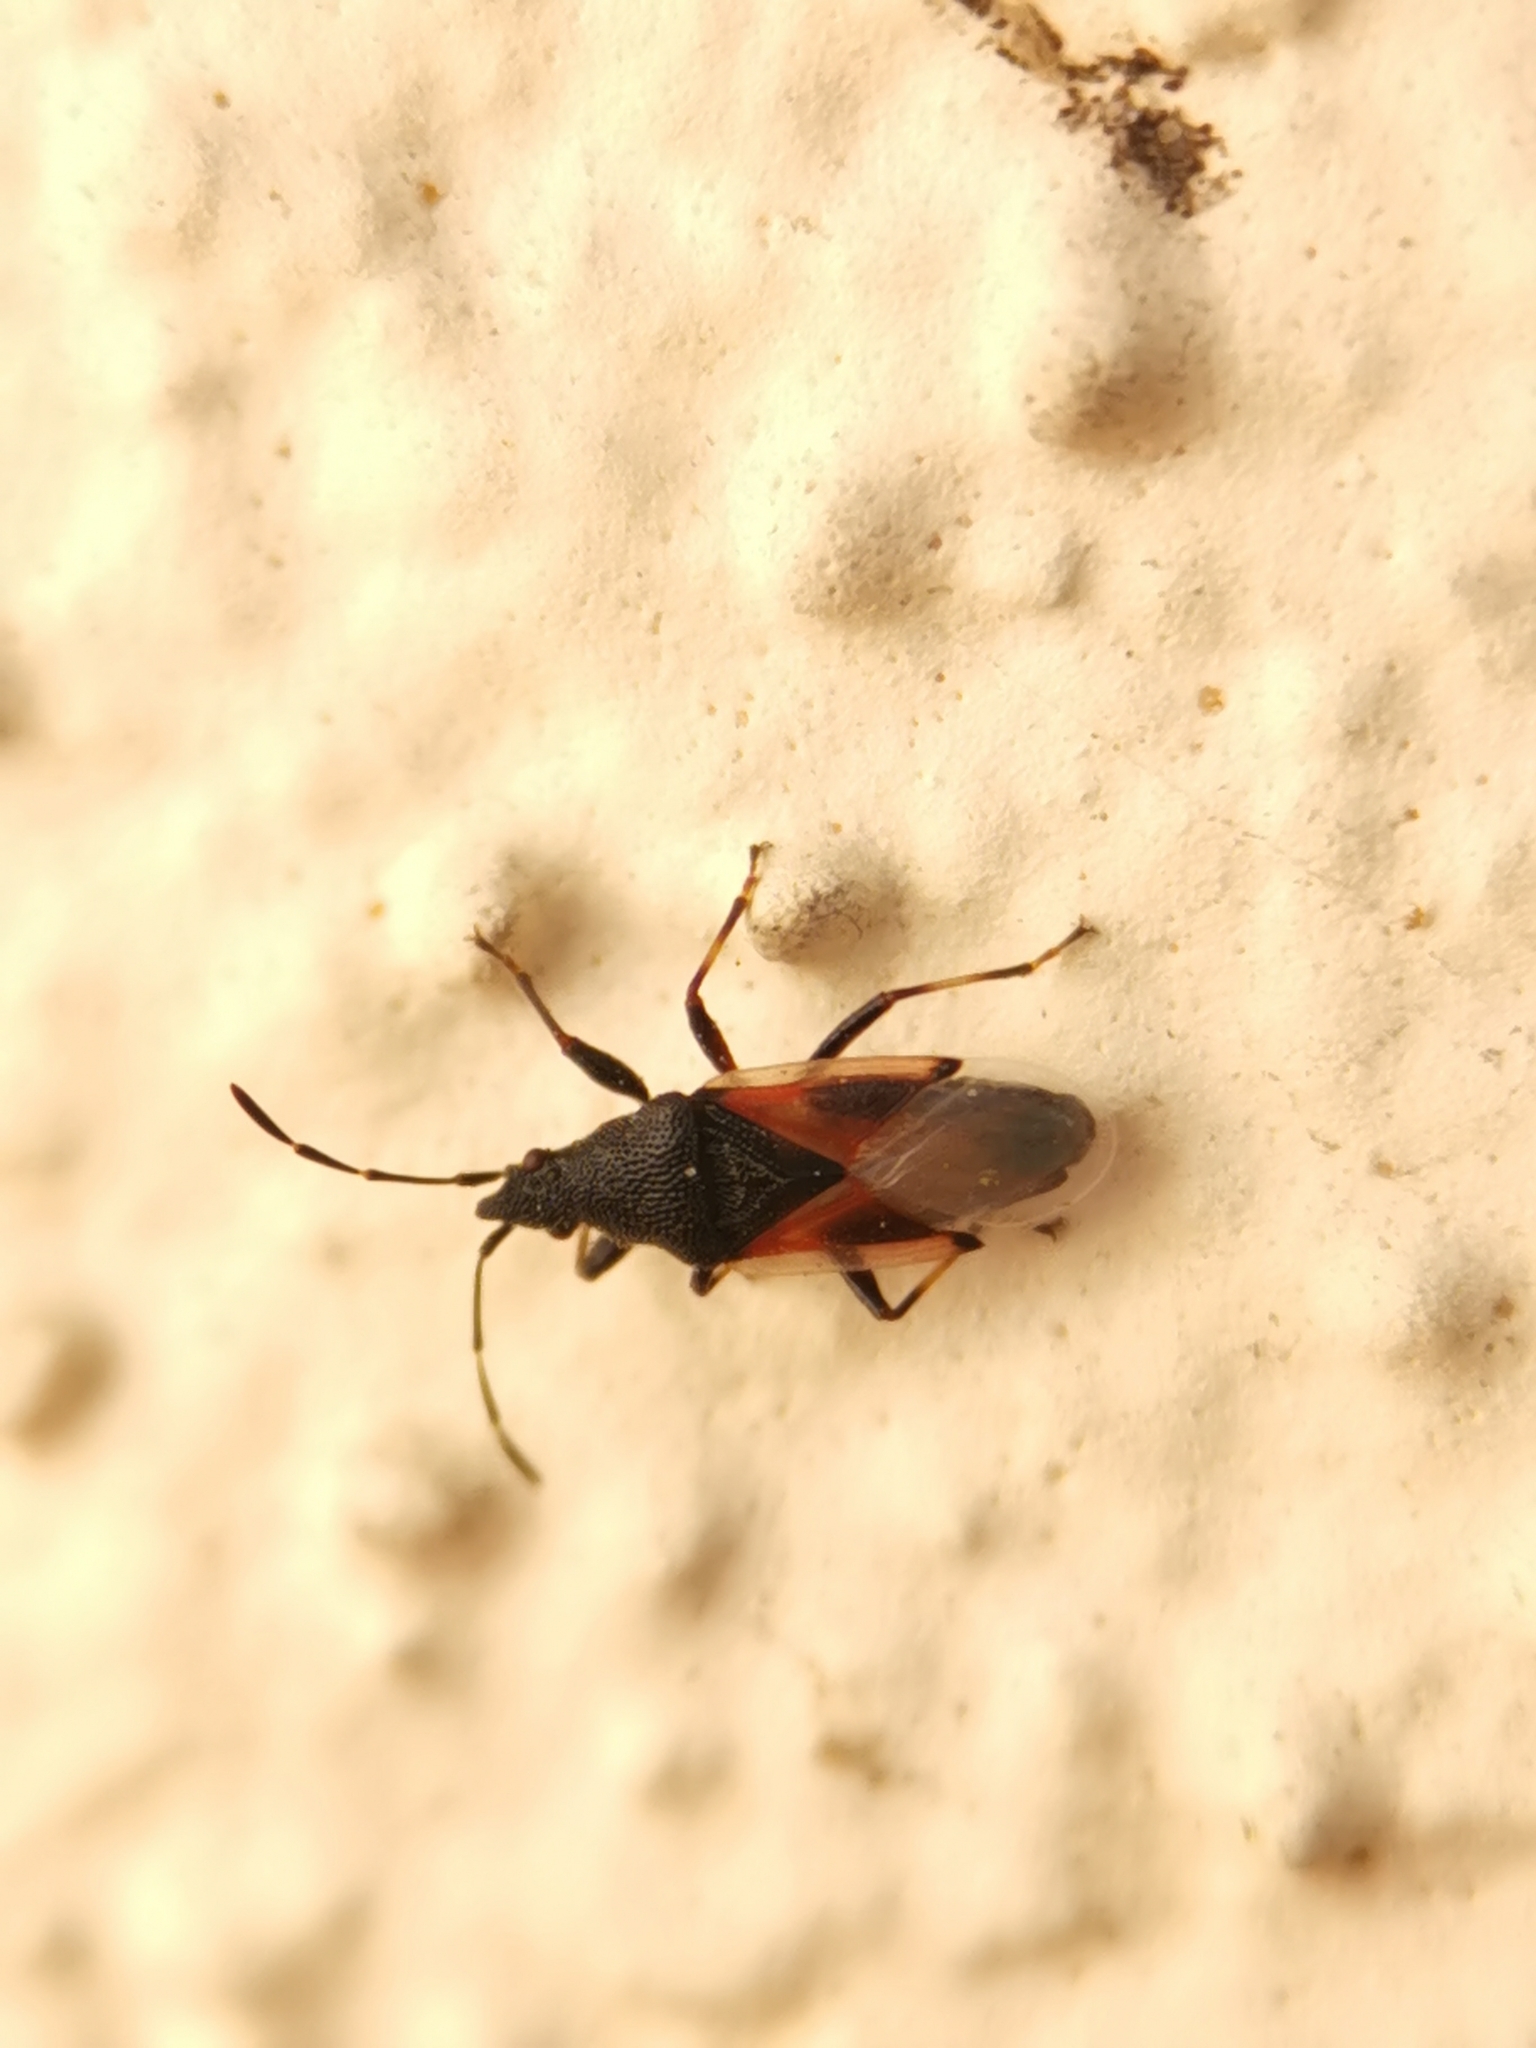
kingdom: Animalia
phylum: Arthropoda
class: Insecta
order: Hemiptera
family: Oxycarenidae
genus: Oxycarenus
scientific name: Oxycarenus lavaterae
